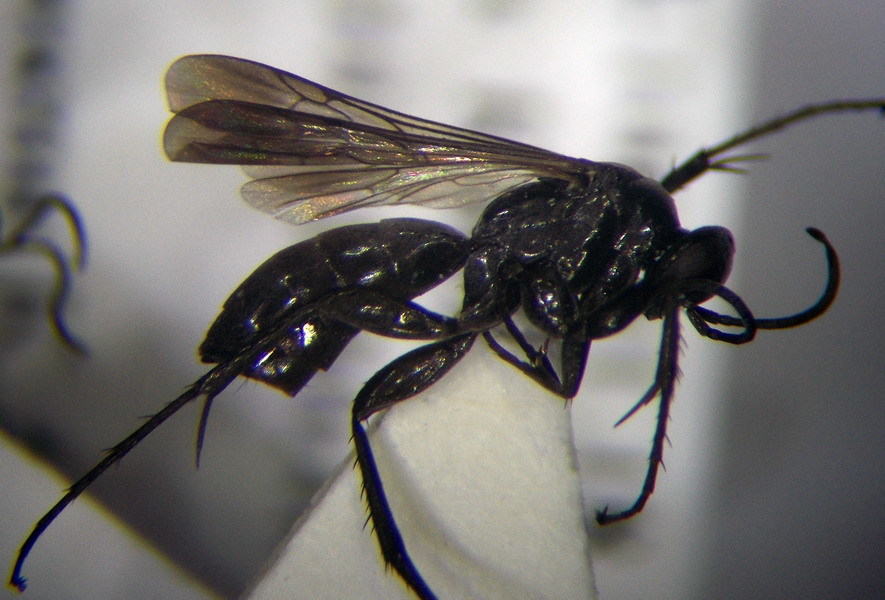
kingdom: Animalia
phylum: Arthropoda
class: Insecta
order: Hymenoptera
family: Pompilidae
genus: Telostegus
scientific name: Telostegus inermis
